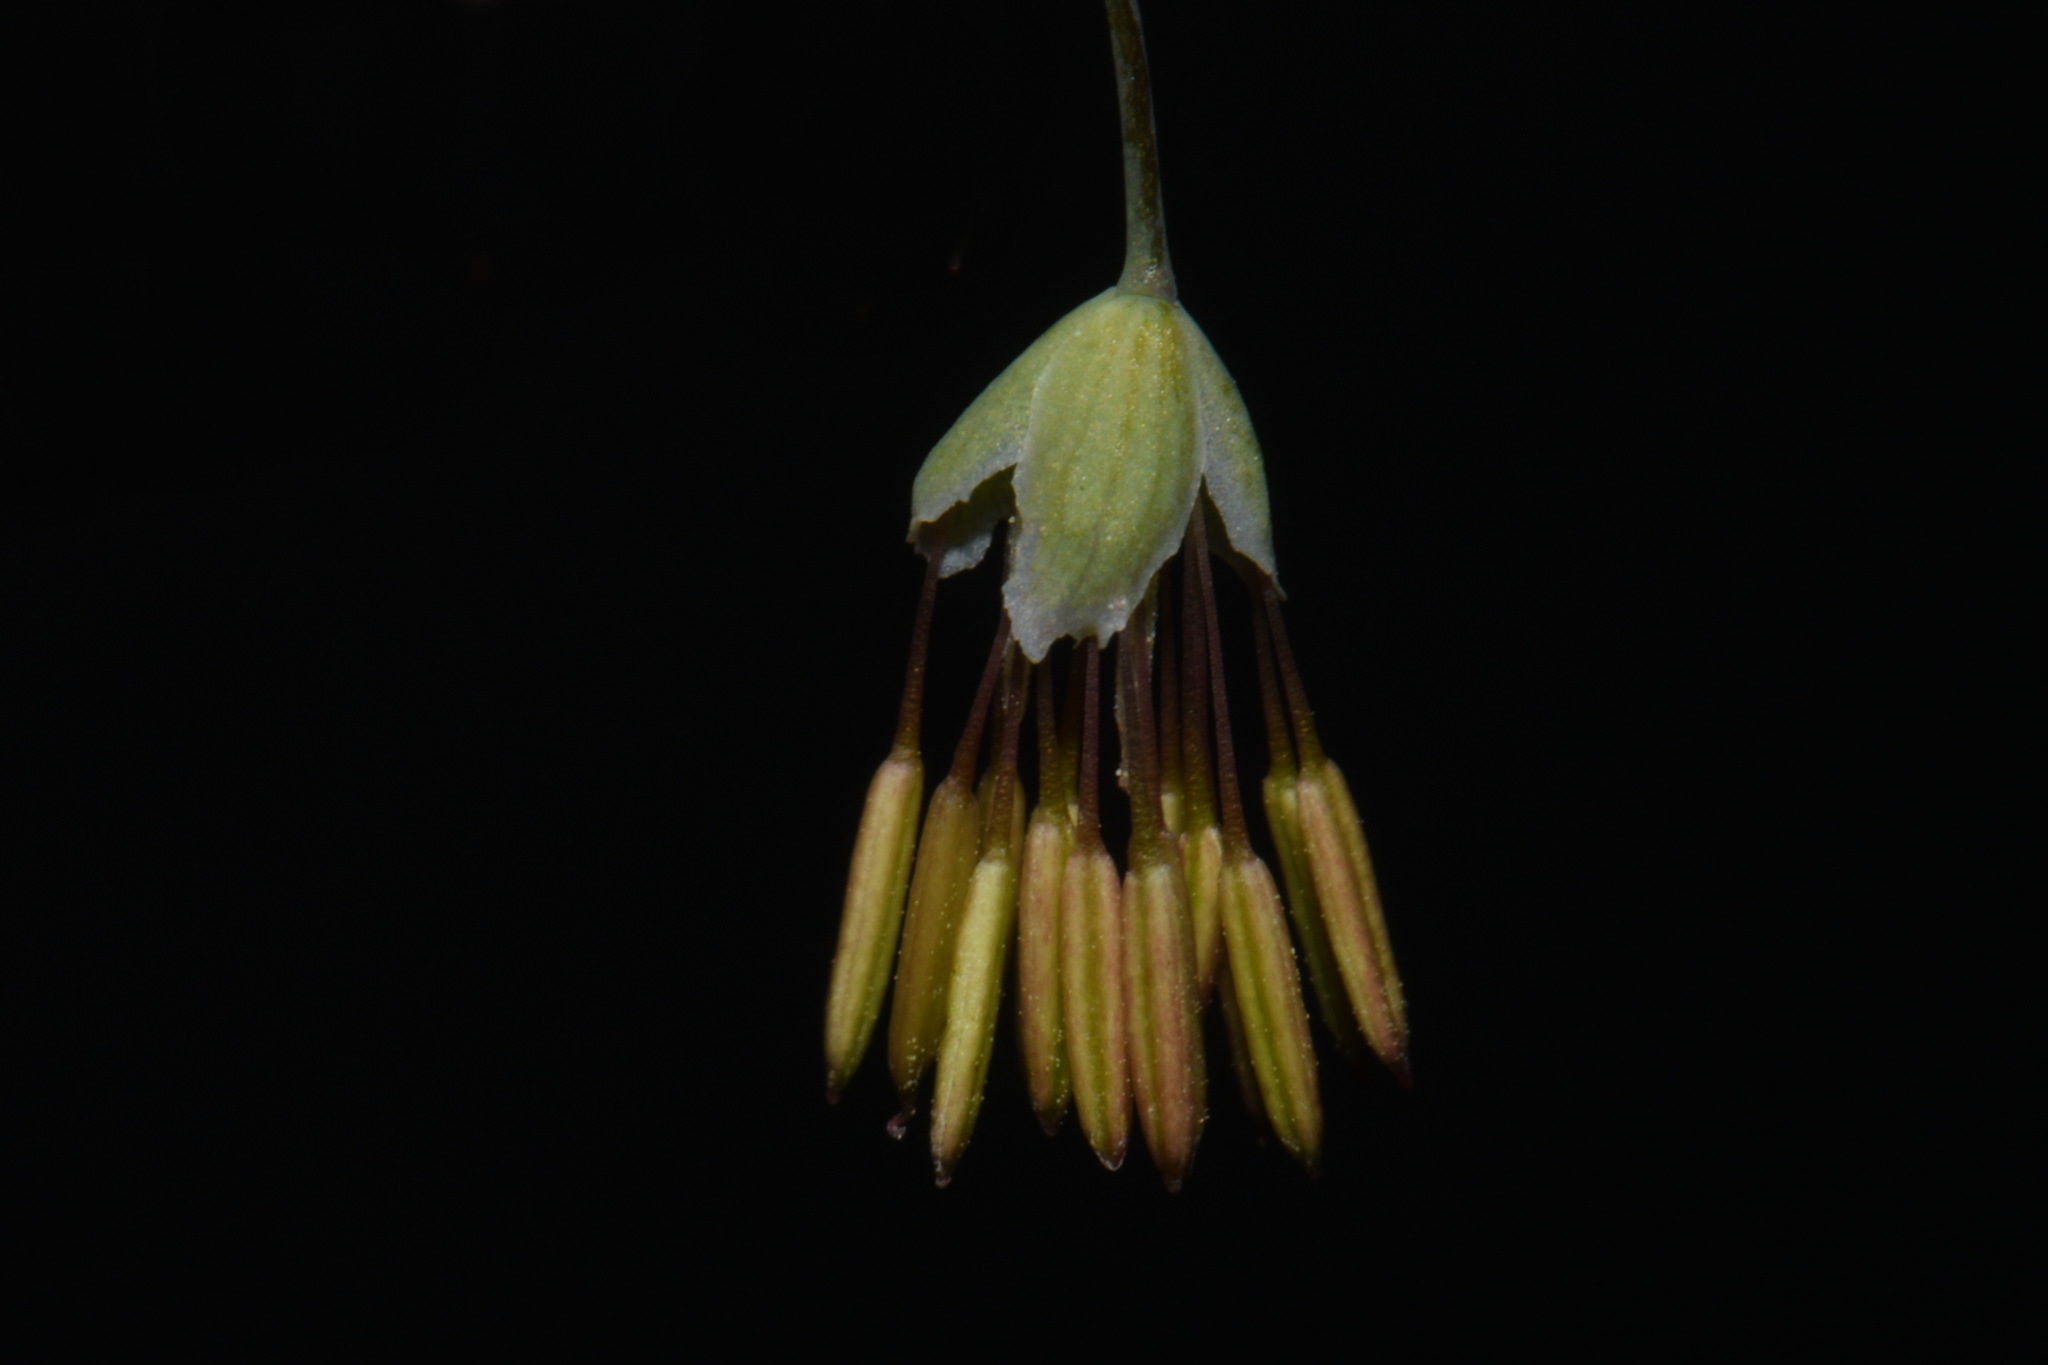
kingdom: Plantae
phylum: Tracheophyta
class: Magnoliopsida
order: Ranunculales
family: Ranunculaceae
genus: Thalictrum
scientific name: Thalictrum dioicum
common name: Early meadow-rue
